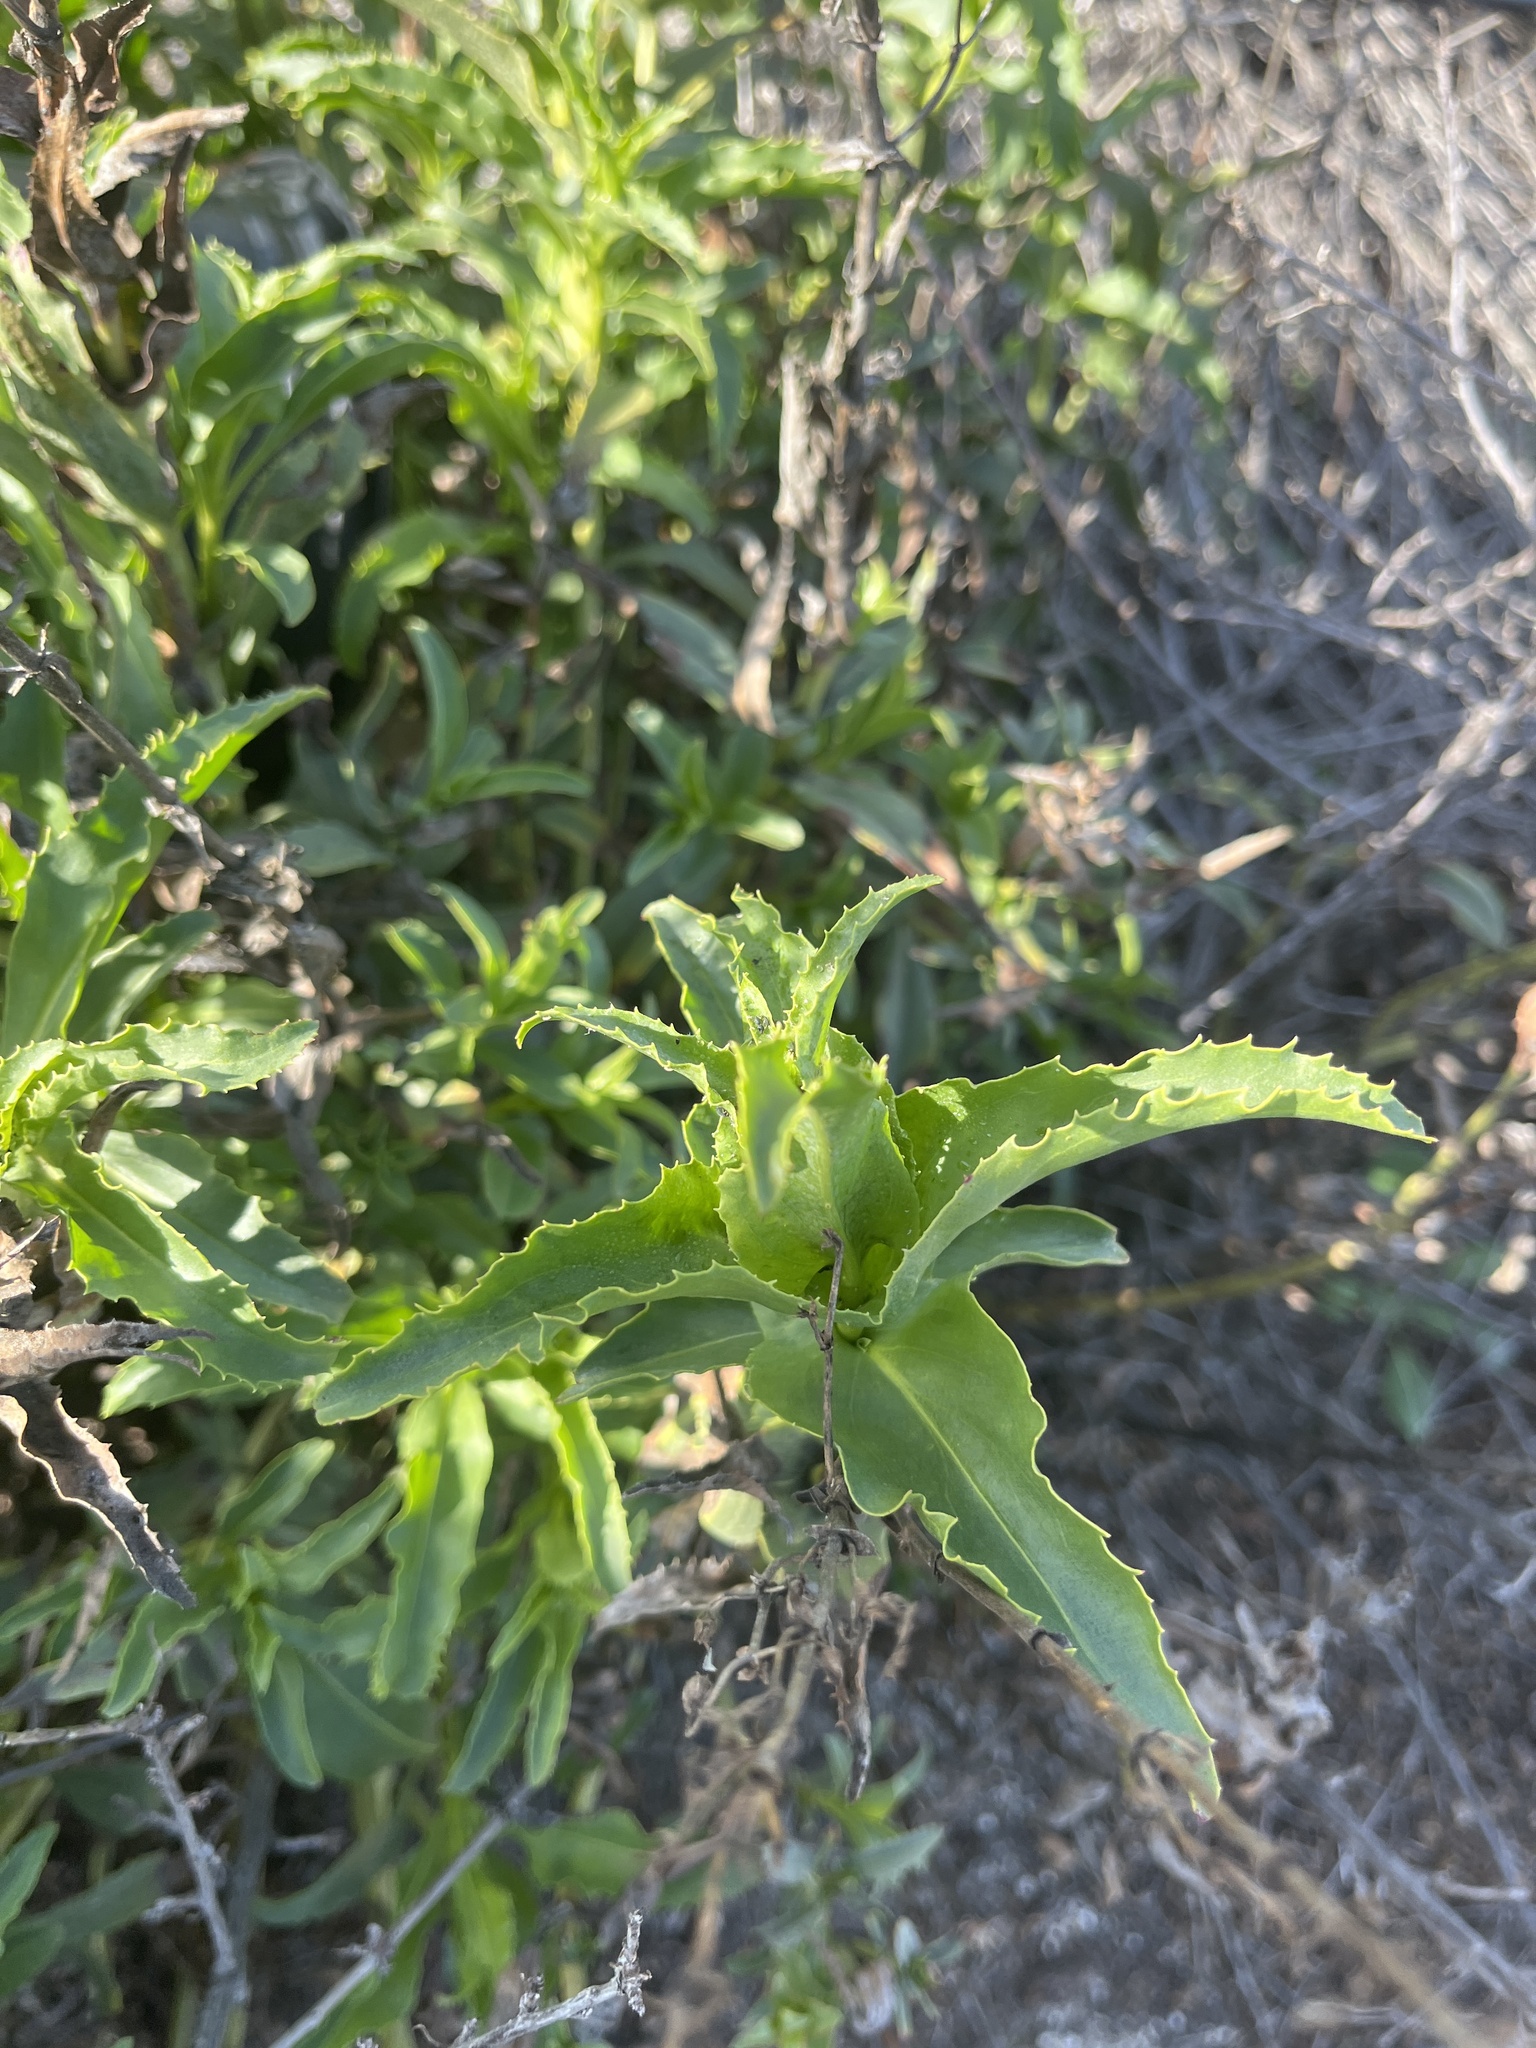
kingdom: Plantae
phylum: Tracheophyta
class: Magnoliopsida
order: Lamiales
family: Plantaginaceae
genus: Penstemon
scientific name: Penstemon spectabilis
